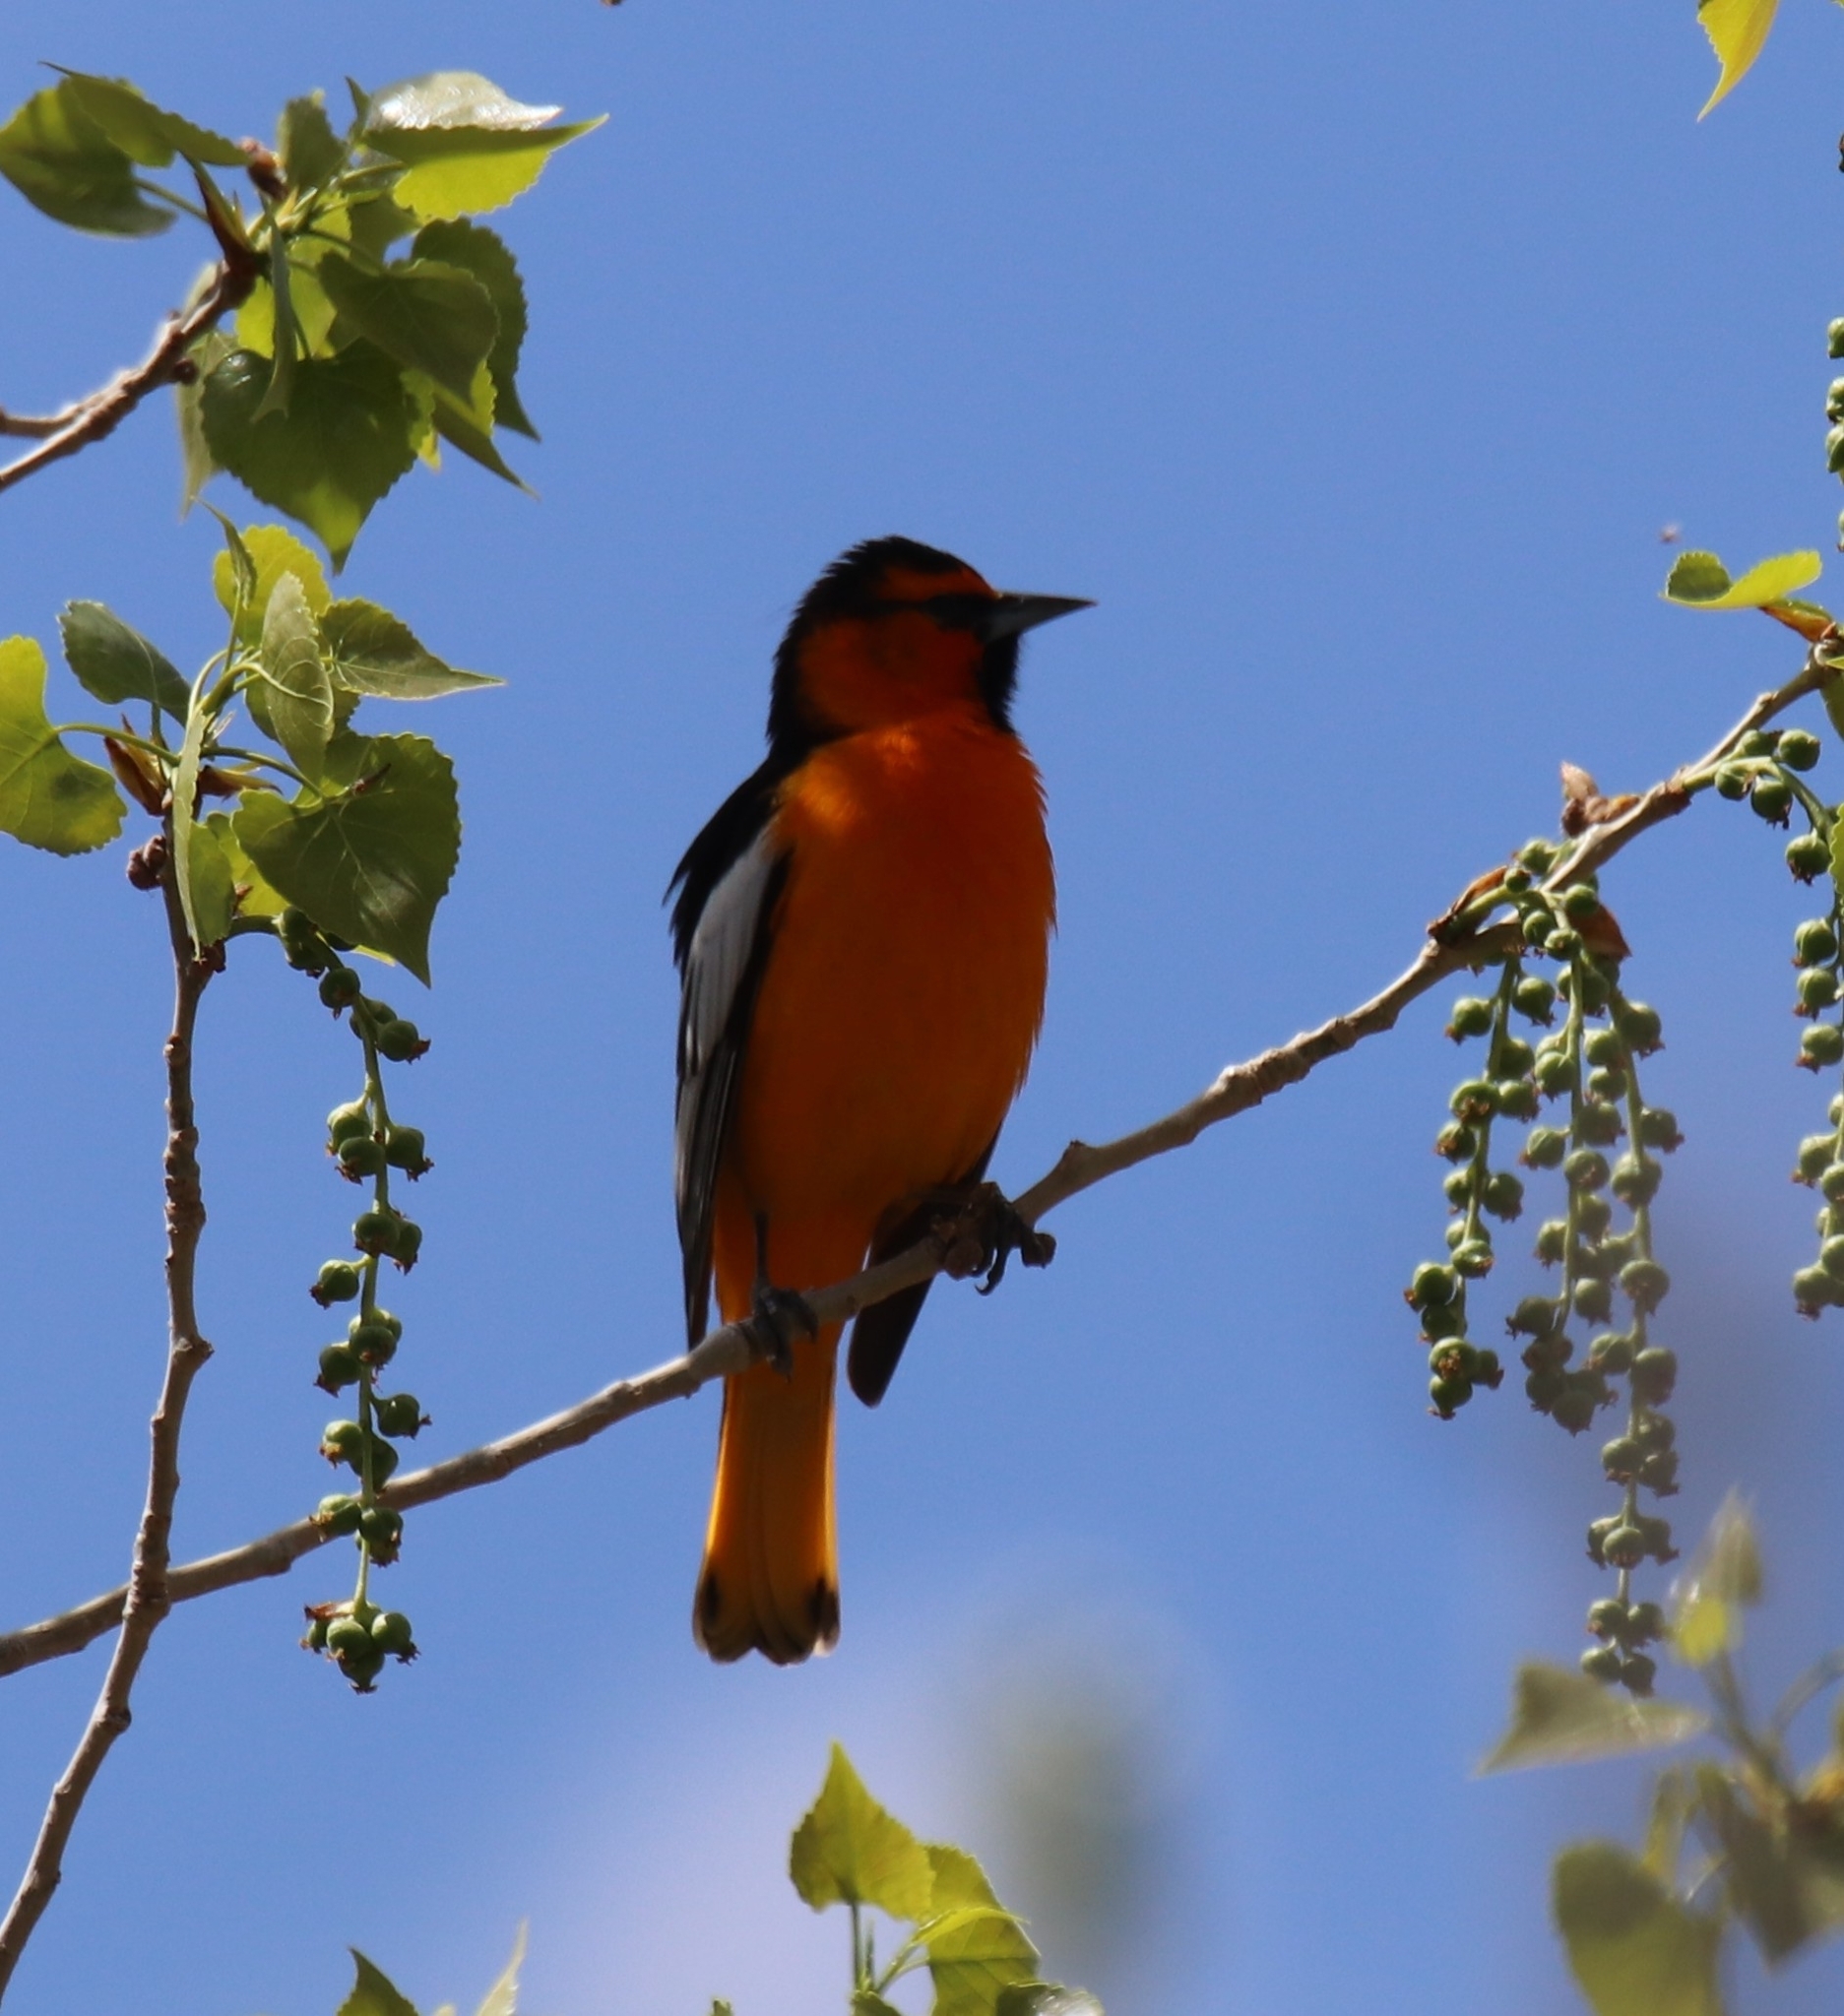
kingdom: Animalia
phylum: Chordata
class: Aves
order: Passeriformes
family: Icteridae
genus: Icterus
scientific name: Icterus bullockii
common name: Bullock's oriole
